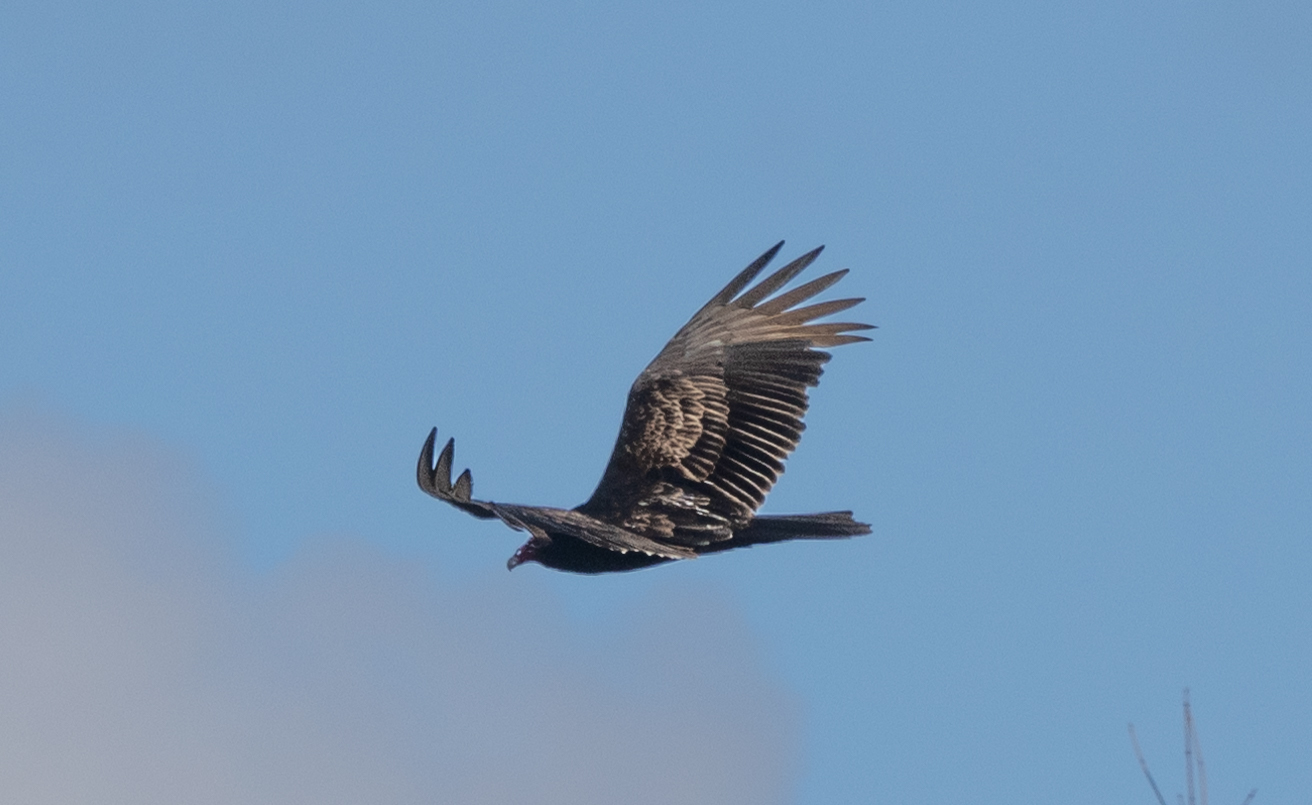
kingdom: Animalia
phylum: Chordata
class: Aves
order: Accipitriformes
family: Cathartidae
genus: Cathartes
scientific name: Cathartes aura
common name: Turkey vulture
